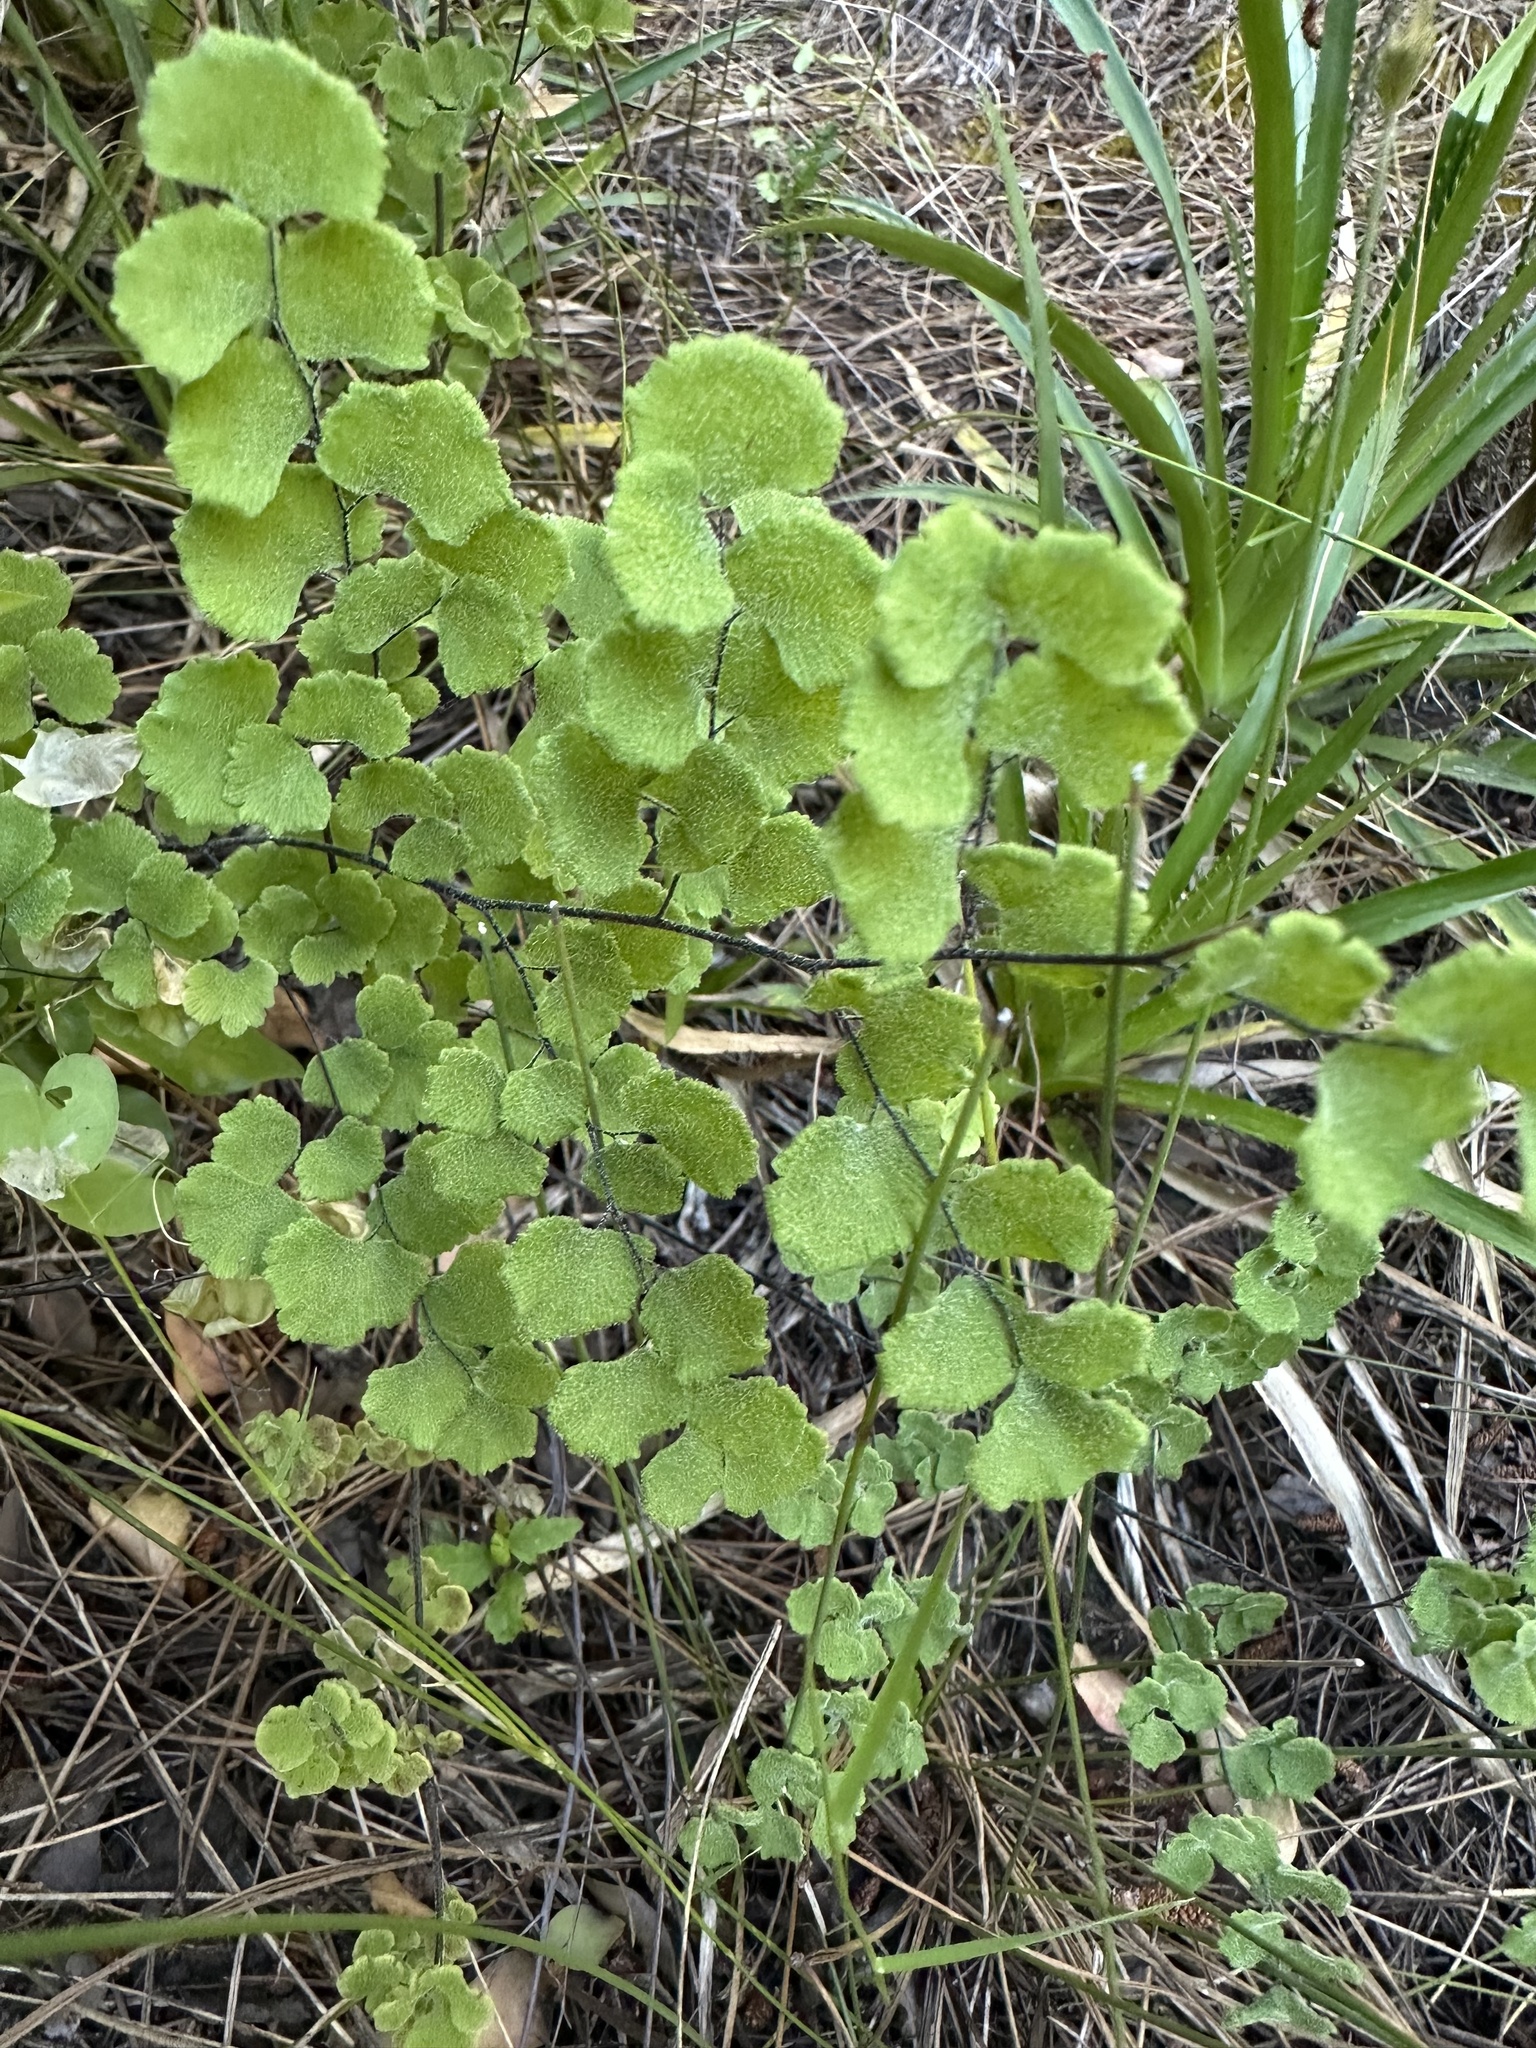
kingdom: Plantae
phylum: Tracheophyta
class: Polypodiopsida
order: Polypodiales
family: Pteridaceae
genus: Adiantum
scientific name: Adiantum chilense
